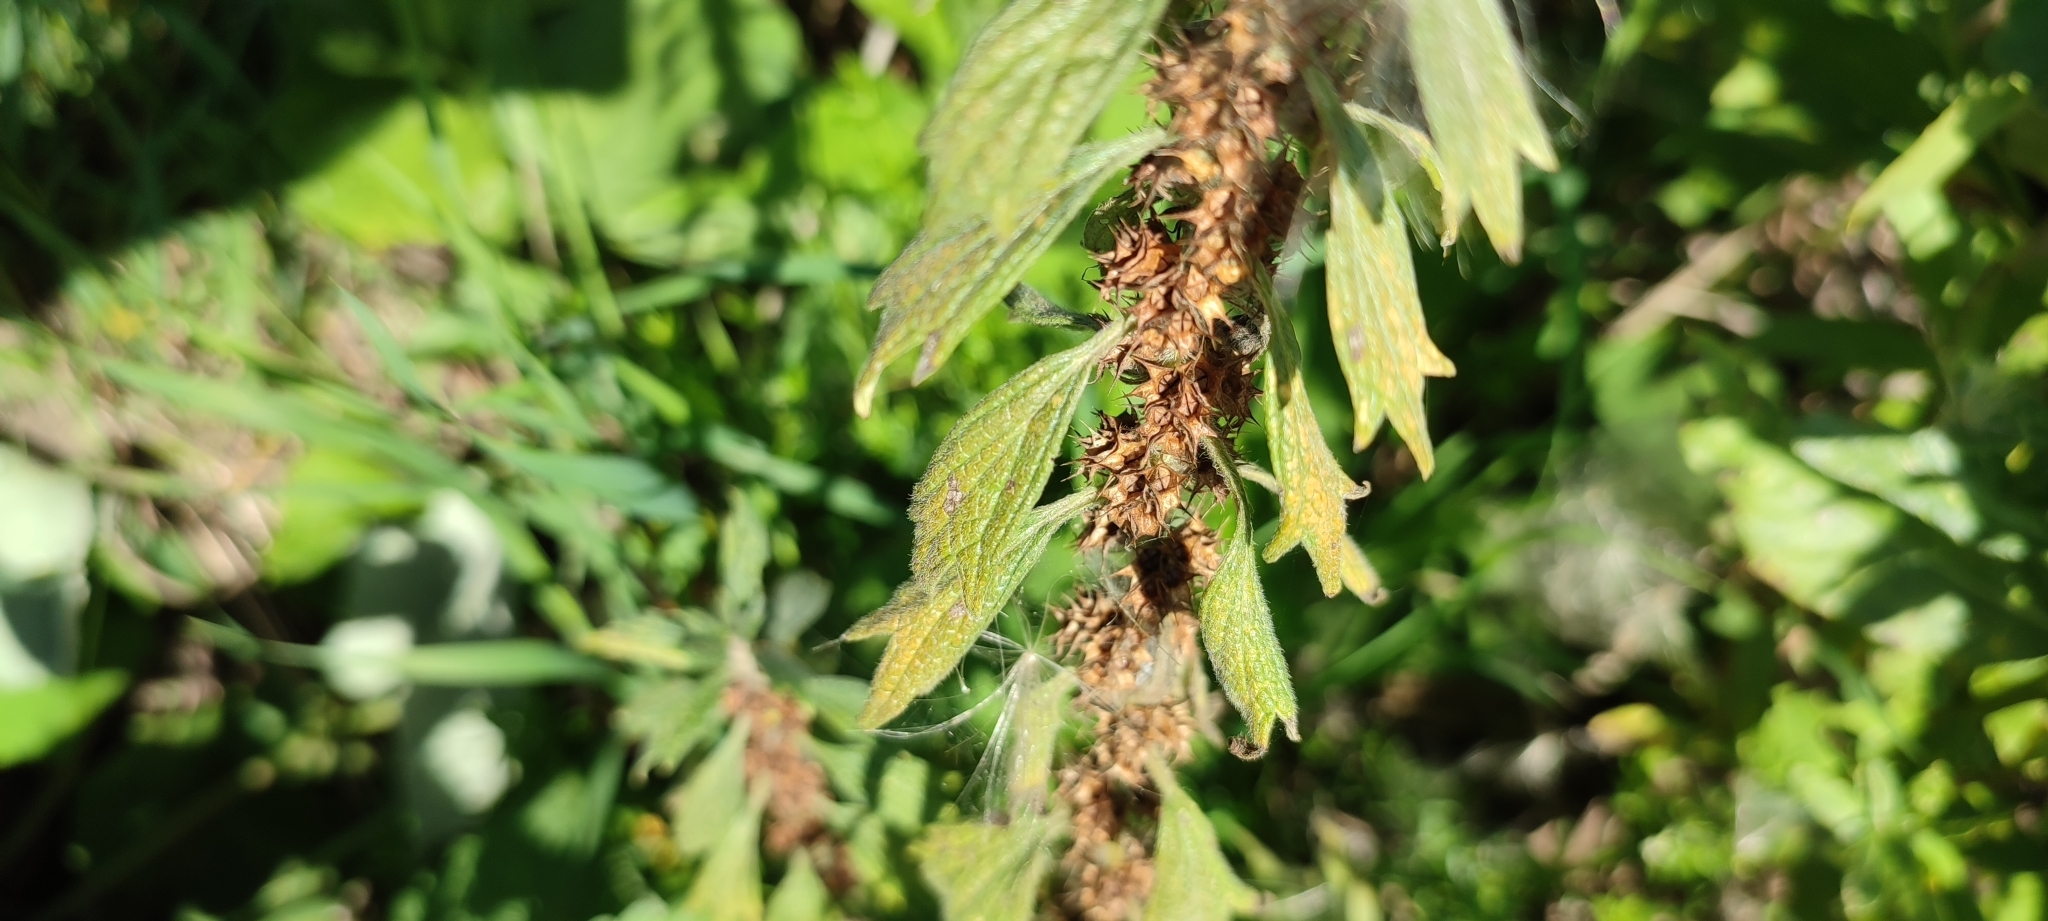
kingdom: Plantae
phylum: Tracheophyta
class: Magnoliopsida
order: Lamiales
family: Lamiaceae
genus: Leonurus
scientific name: Leonurus quinquelobatus
